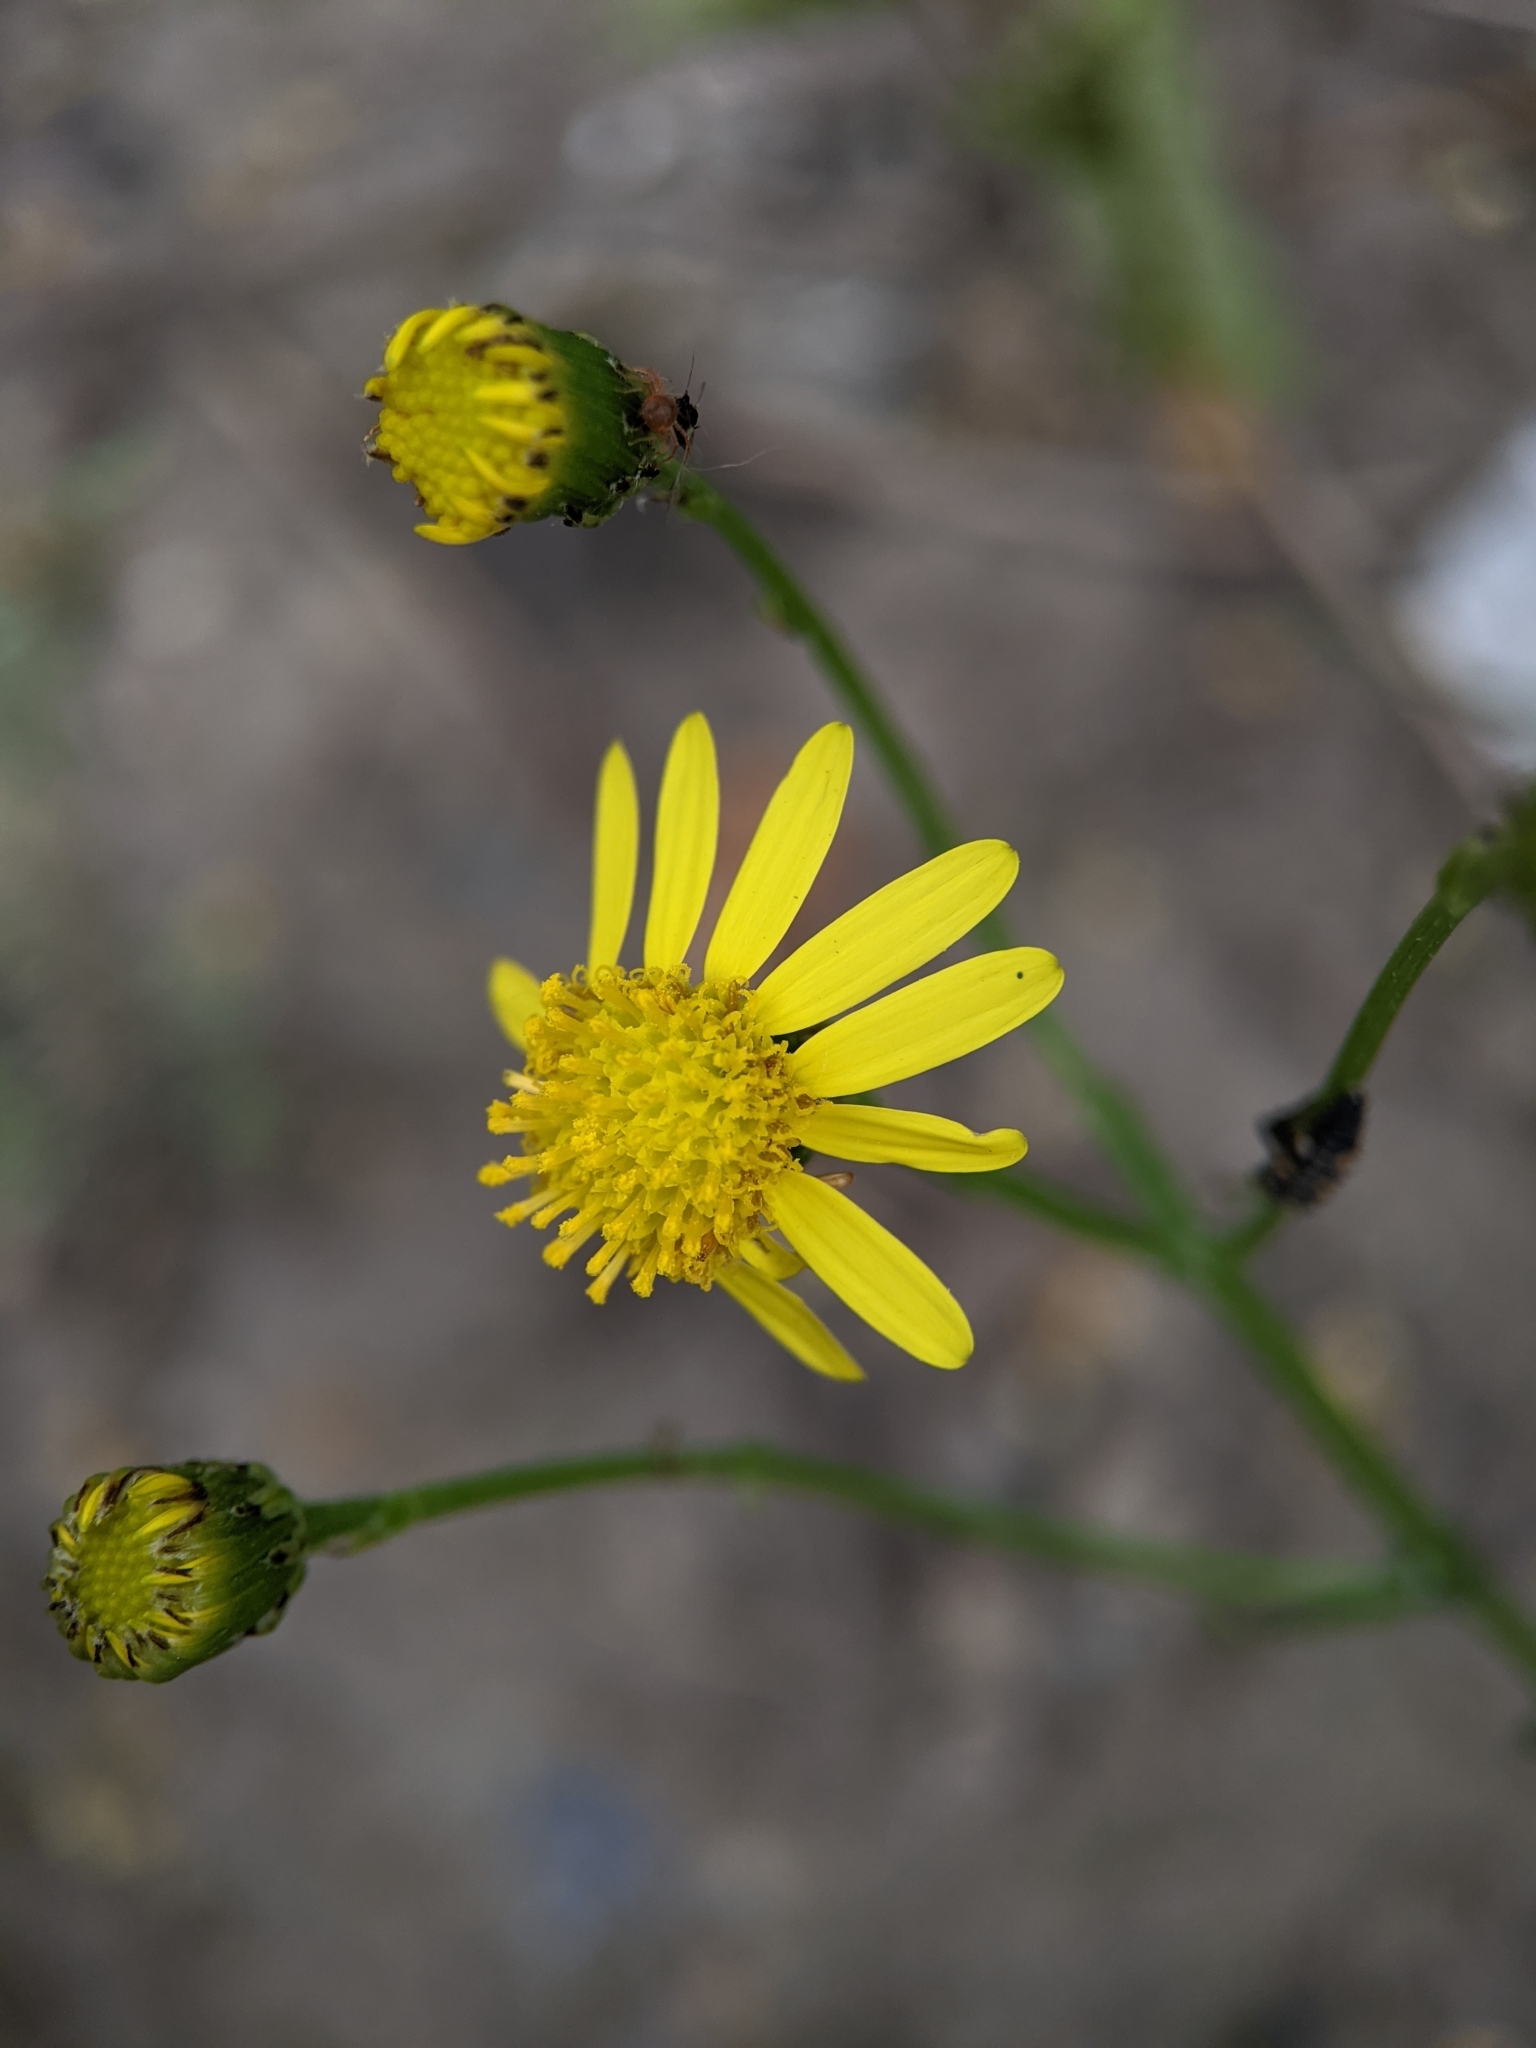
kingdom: Plantae
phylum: Tracheophyta
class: Magnoliopsida
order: Asterales
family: Asteraceae
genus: Senecio
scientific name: Senecio inaequidens
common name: Narrow-leaved ragwort
